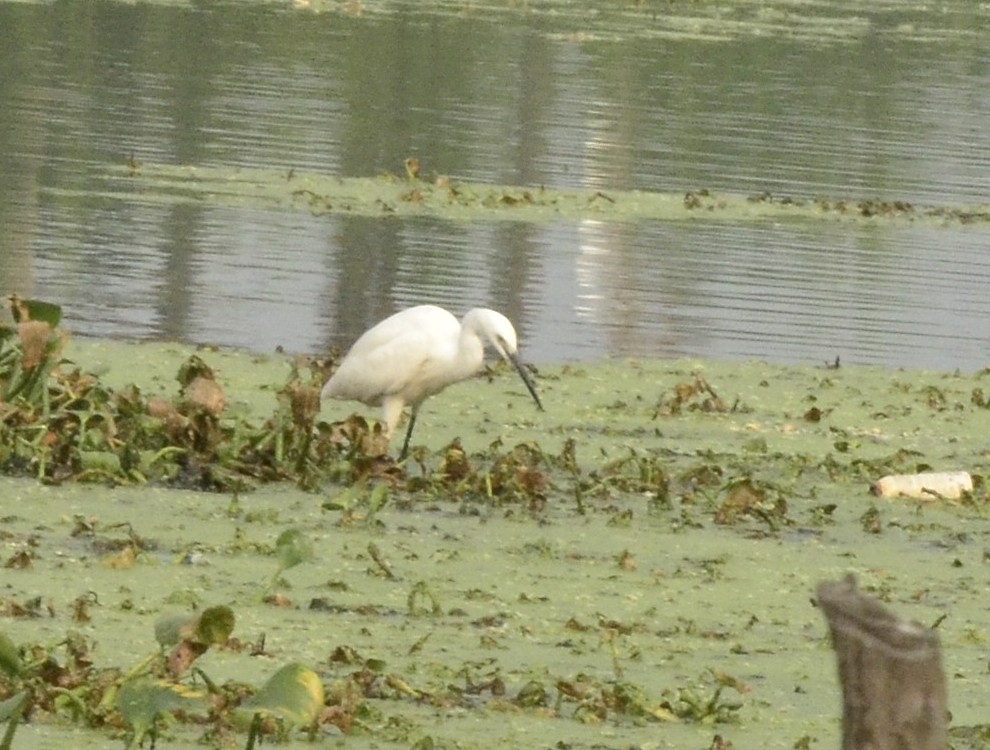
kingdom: Animalia
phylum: Chordata
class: Aves
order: Pelecaniformes
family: Ardeidae
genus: Egretta
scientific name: Egretta garzetta
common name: Little egret
